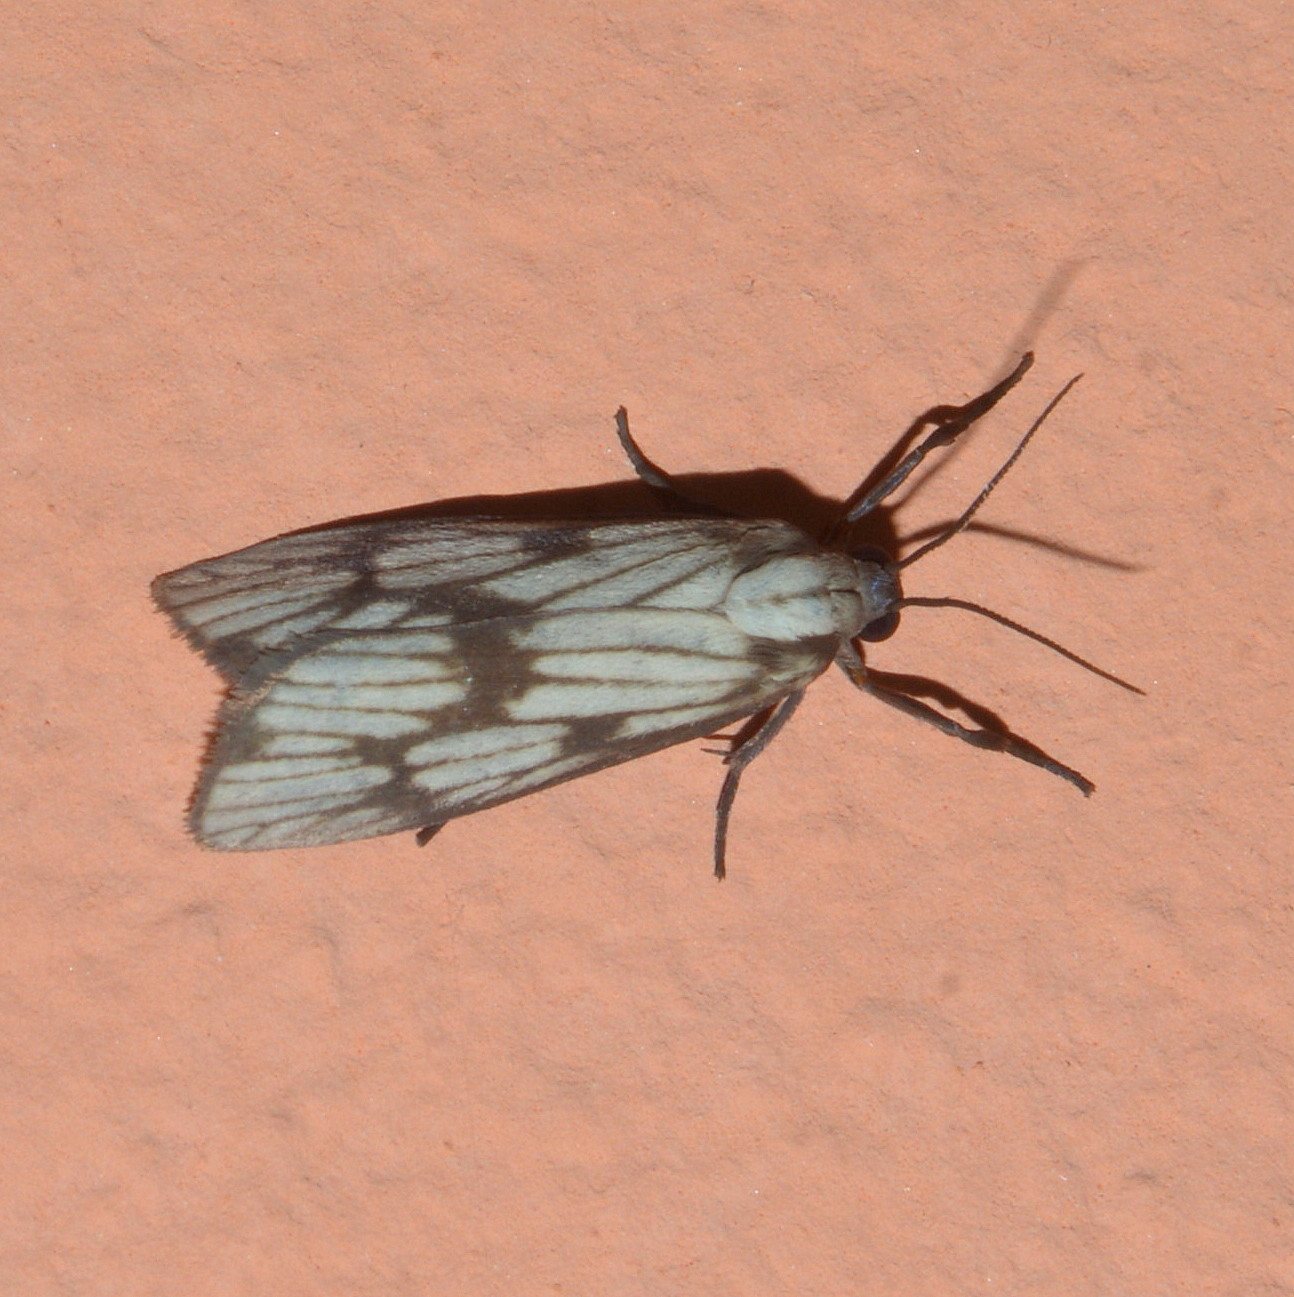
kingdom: Animalia
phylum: Arthropoda
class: Insecta
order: Lepidoptera
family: Erebidae
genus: Euthyone
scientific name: Euthyone celenna
